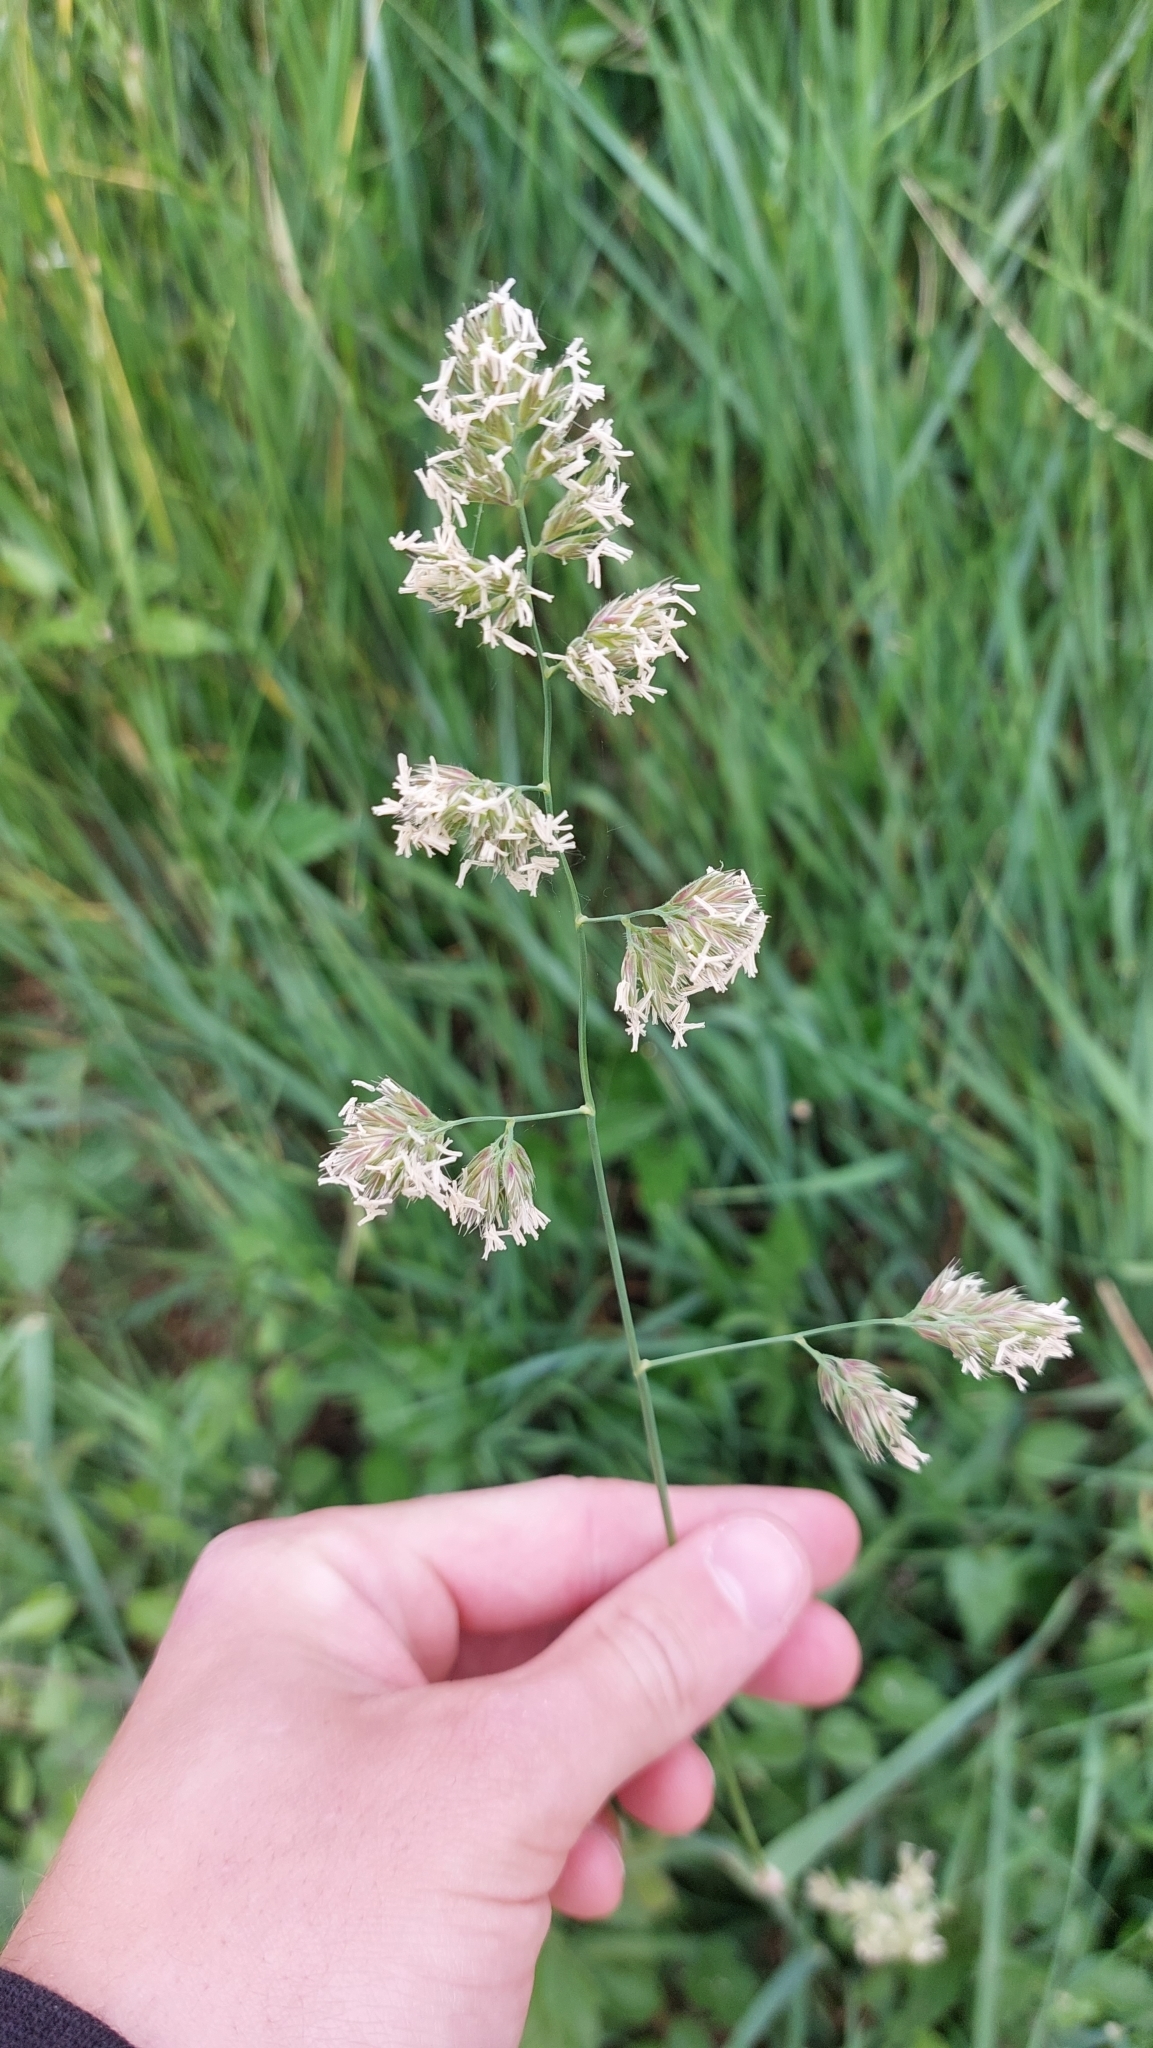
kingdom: Plantae
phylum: Tracheophyta
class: Liliopsida
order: Poales
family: Poaceae
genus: Dactylis
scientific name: Dactylis glomerata
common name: Orchardgrass
